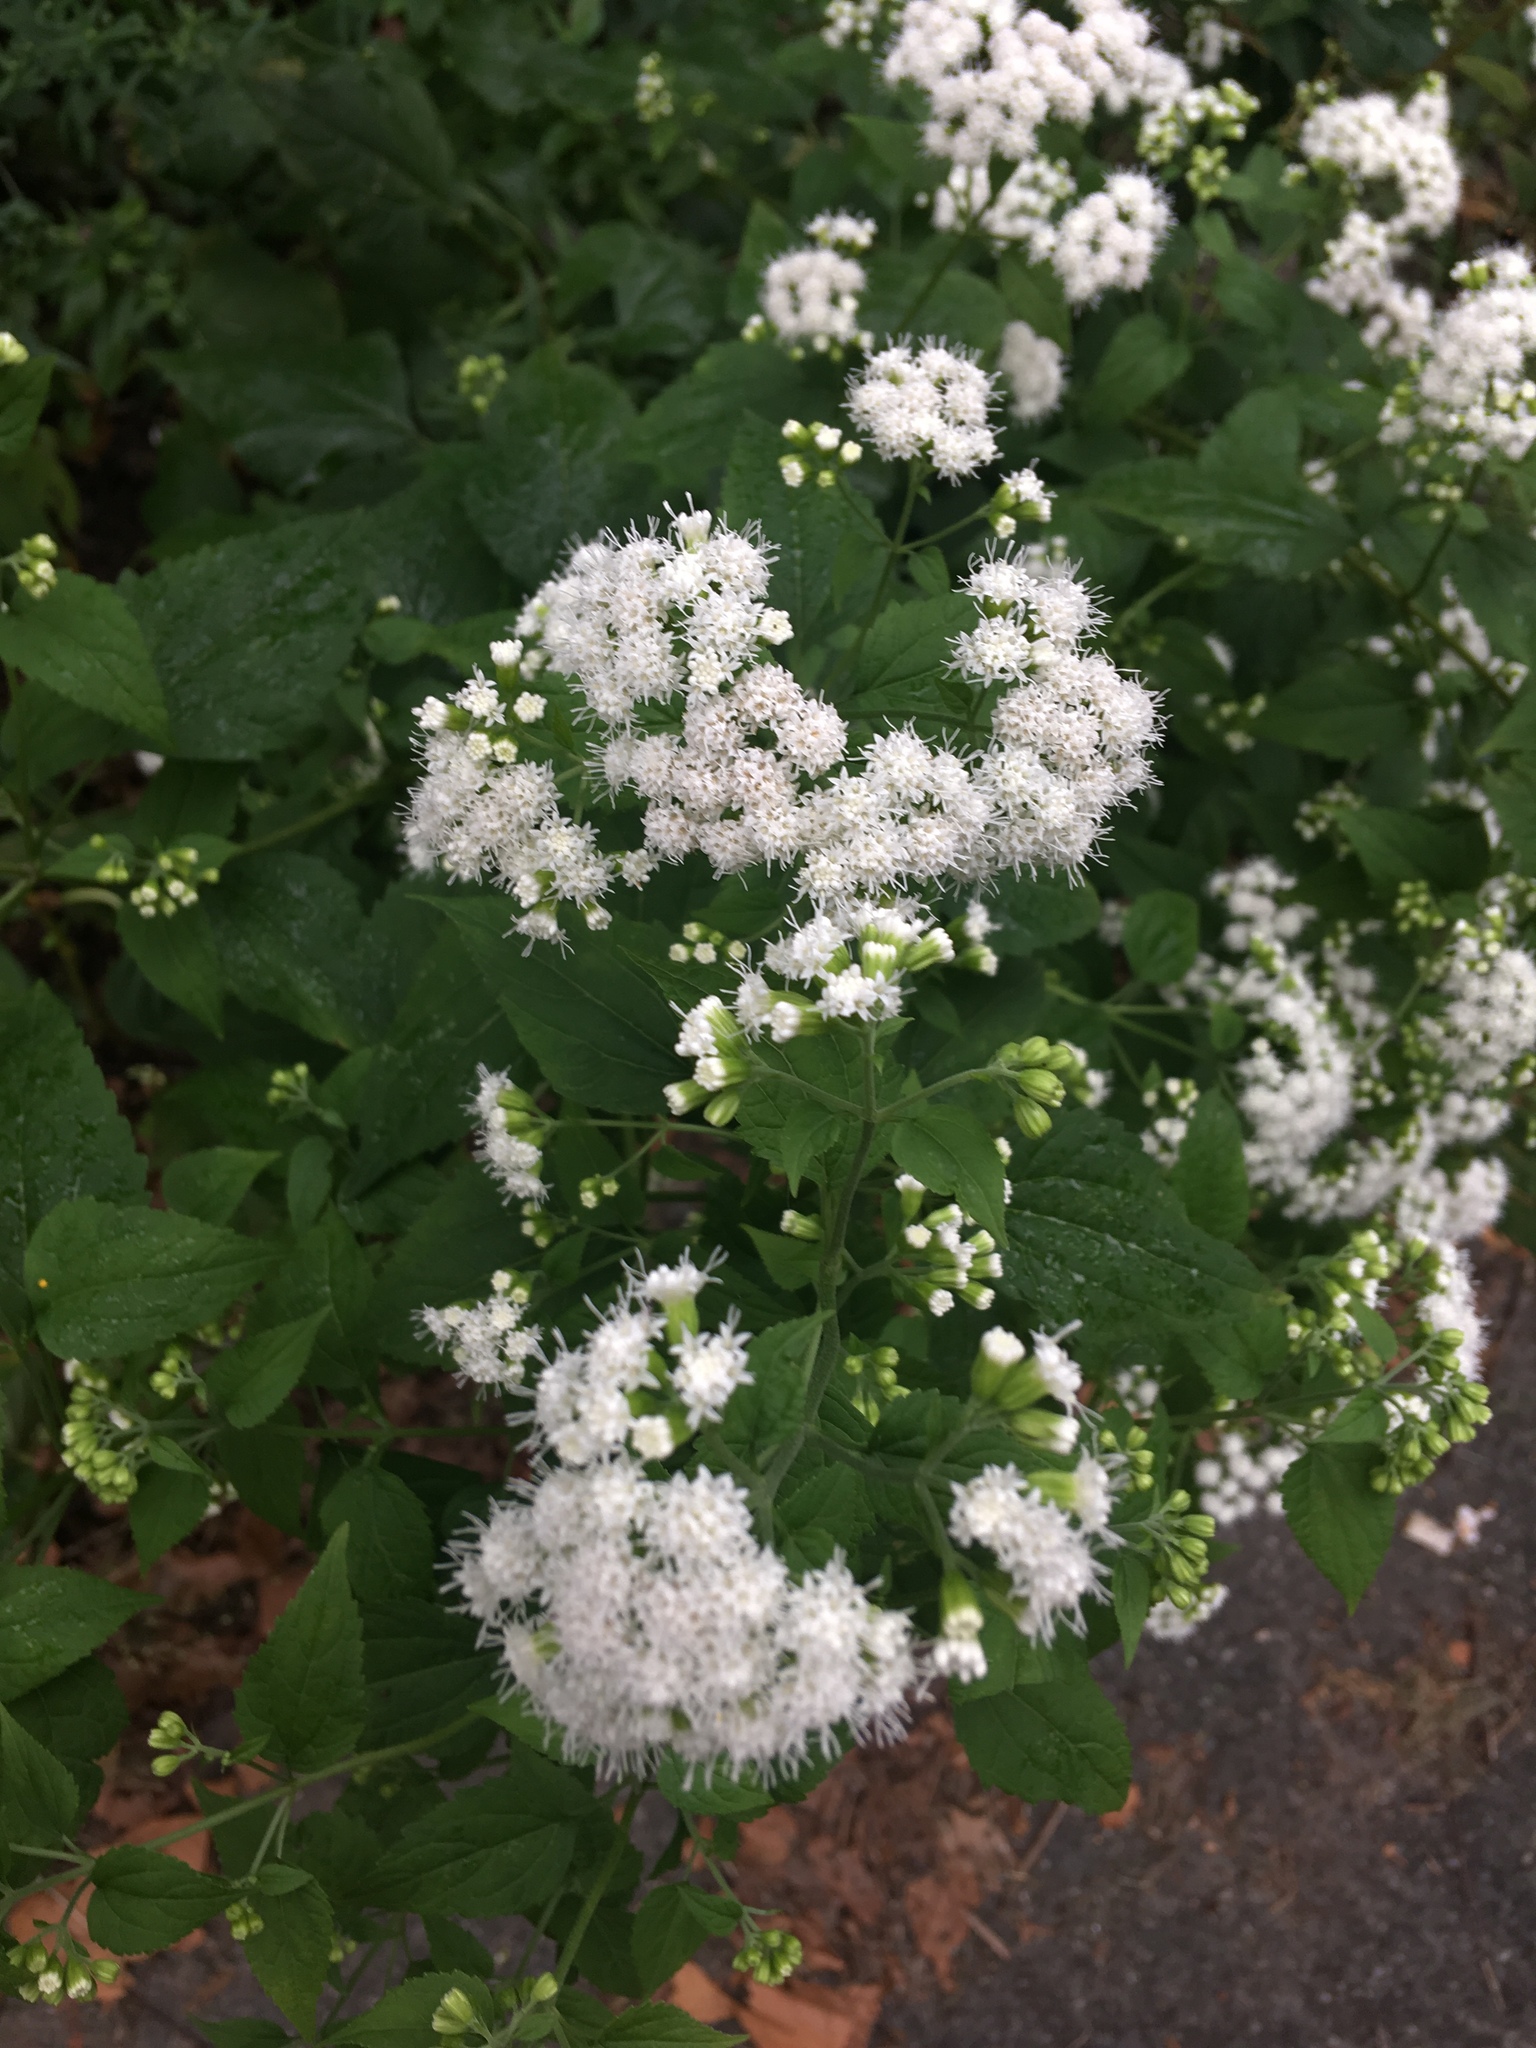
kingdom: Plantae
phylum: Tracheophyta
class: Magnoliopsida
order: Asterales
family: Asteraceae
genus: Ageratina
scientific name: Ageratina altissima
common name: White snakeroot
